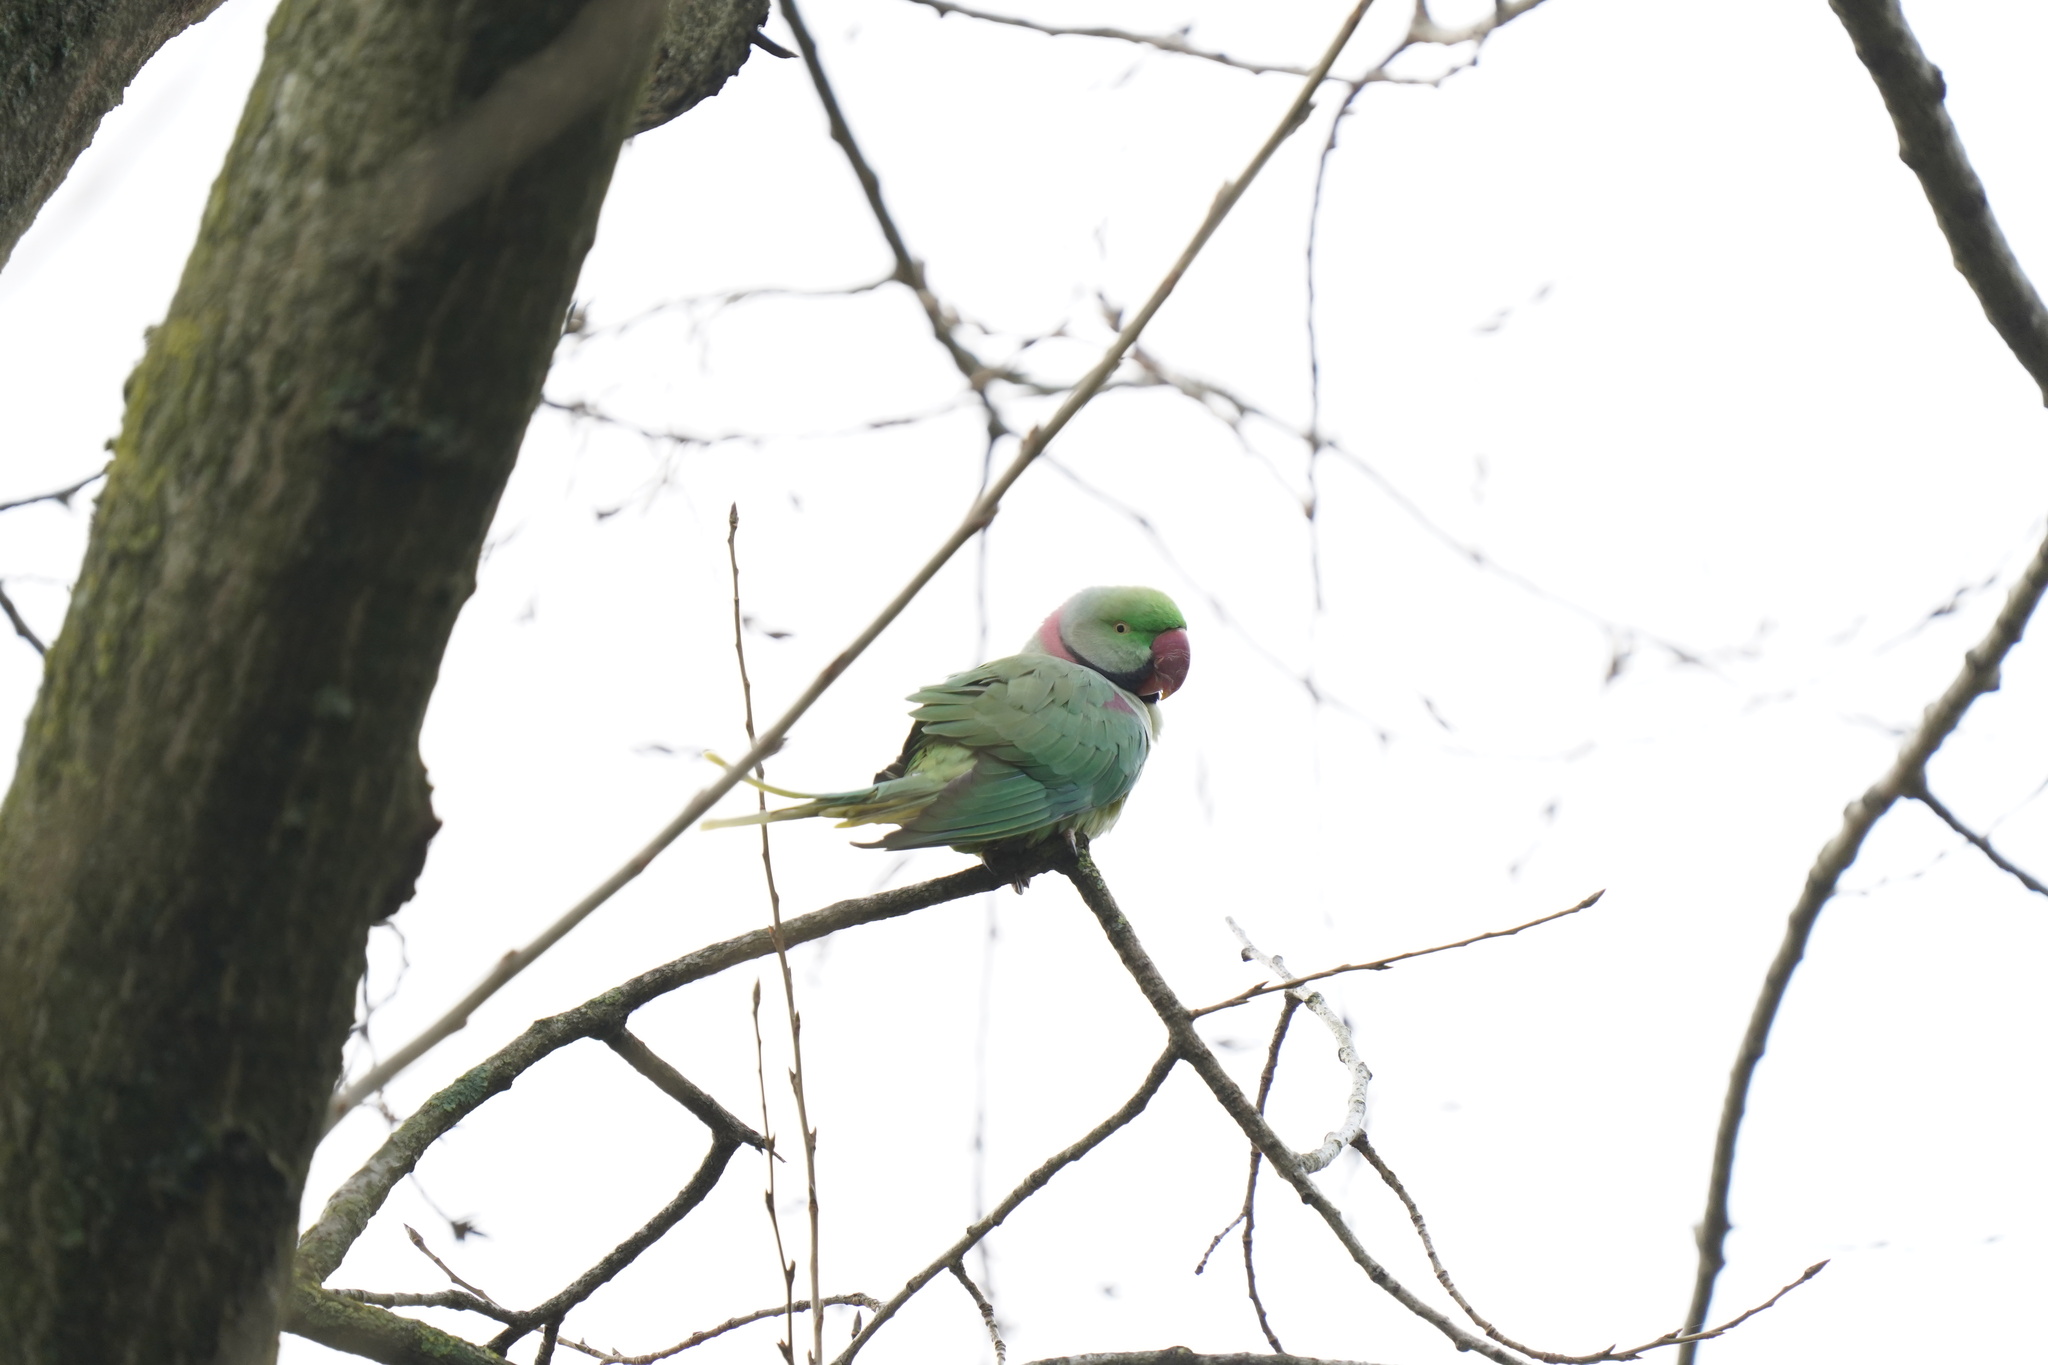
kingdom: Animalia
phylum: Chordata
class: Aves
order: Psittaciformes
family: Psittacidae
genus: Psittacula
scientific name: Psittacula eupatria
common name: Alexandrine parakeet
